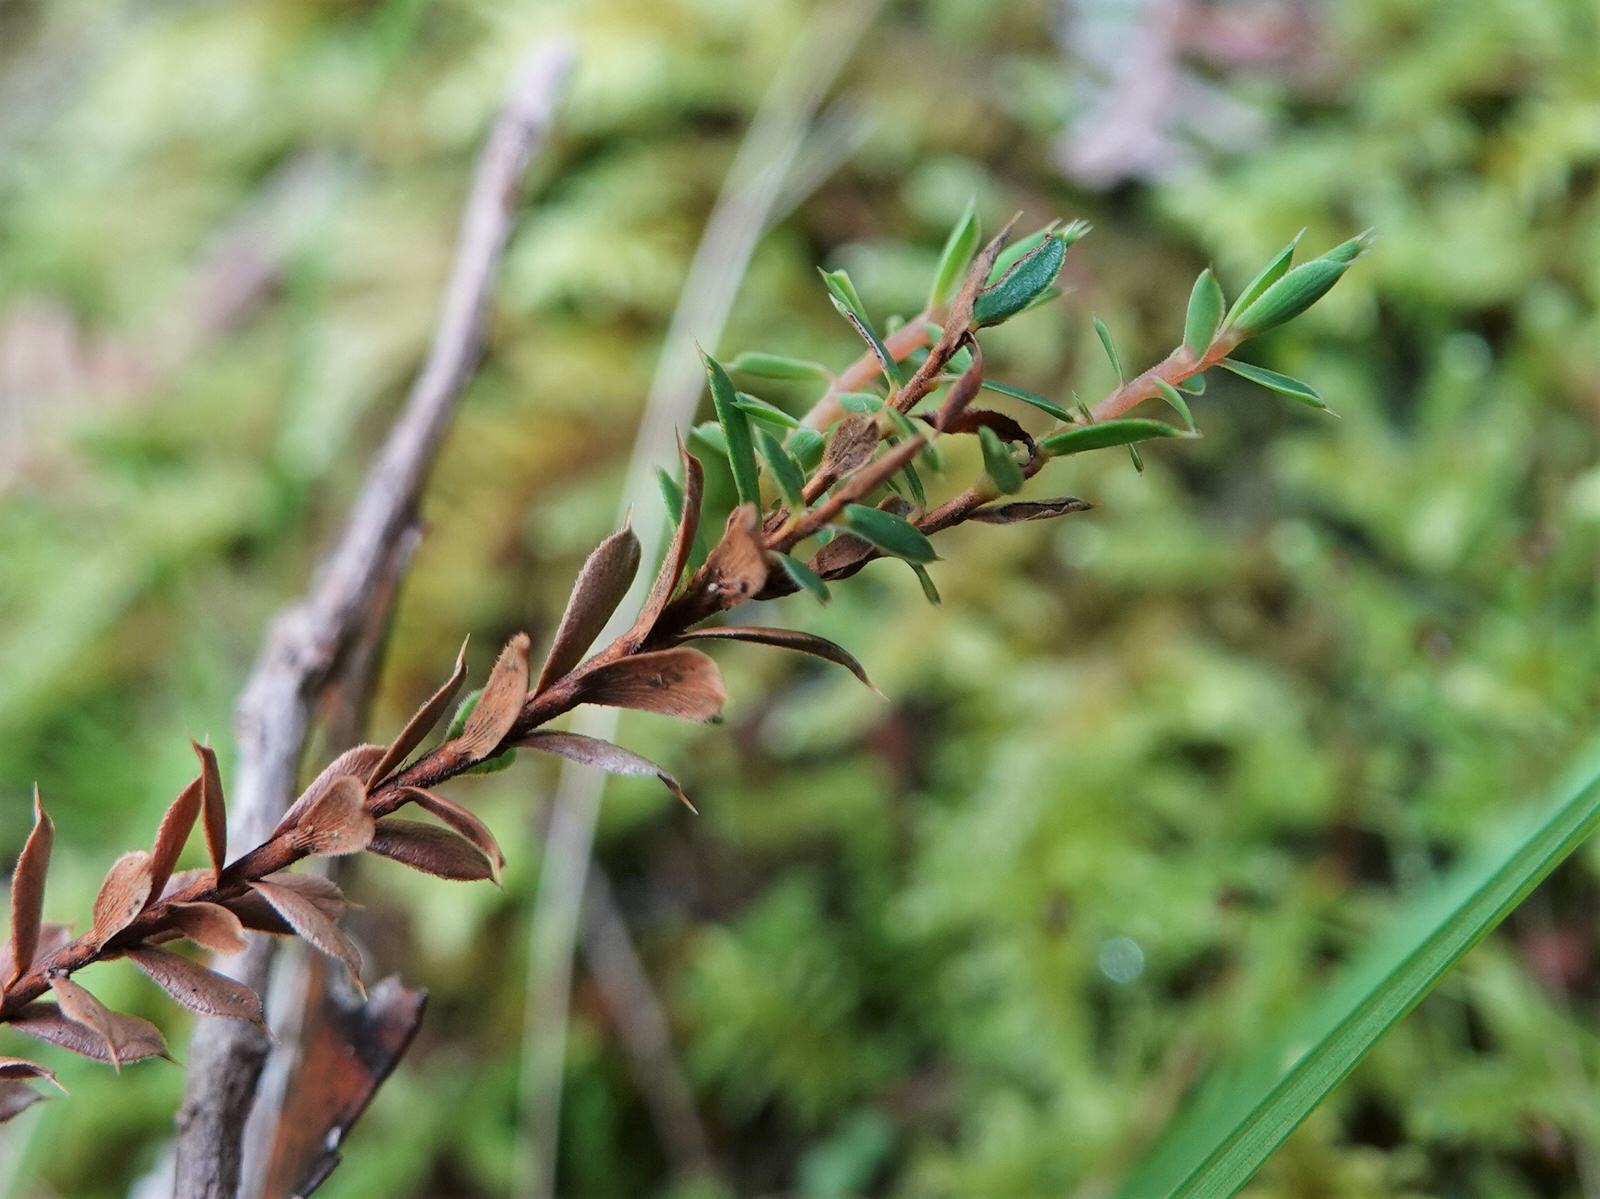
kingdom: Plantae
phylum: Tracheophyta
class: Magnoliopsida
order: Ericales
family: Ericaceae
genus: Styphelia
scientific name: Styphelia nesophila
